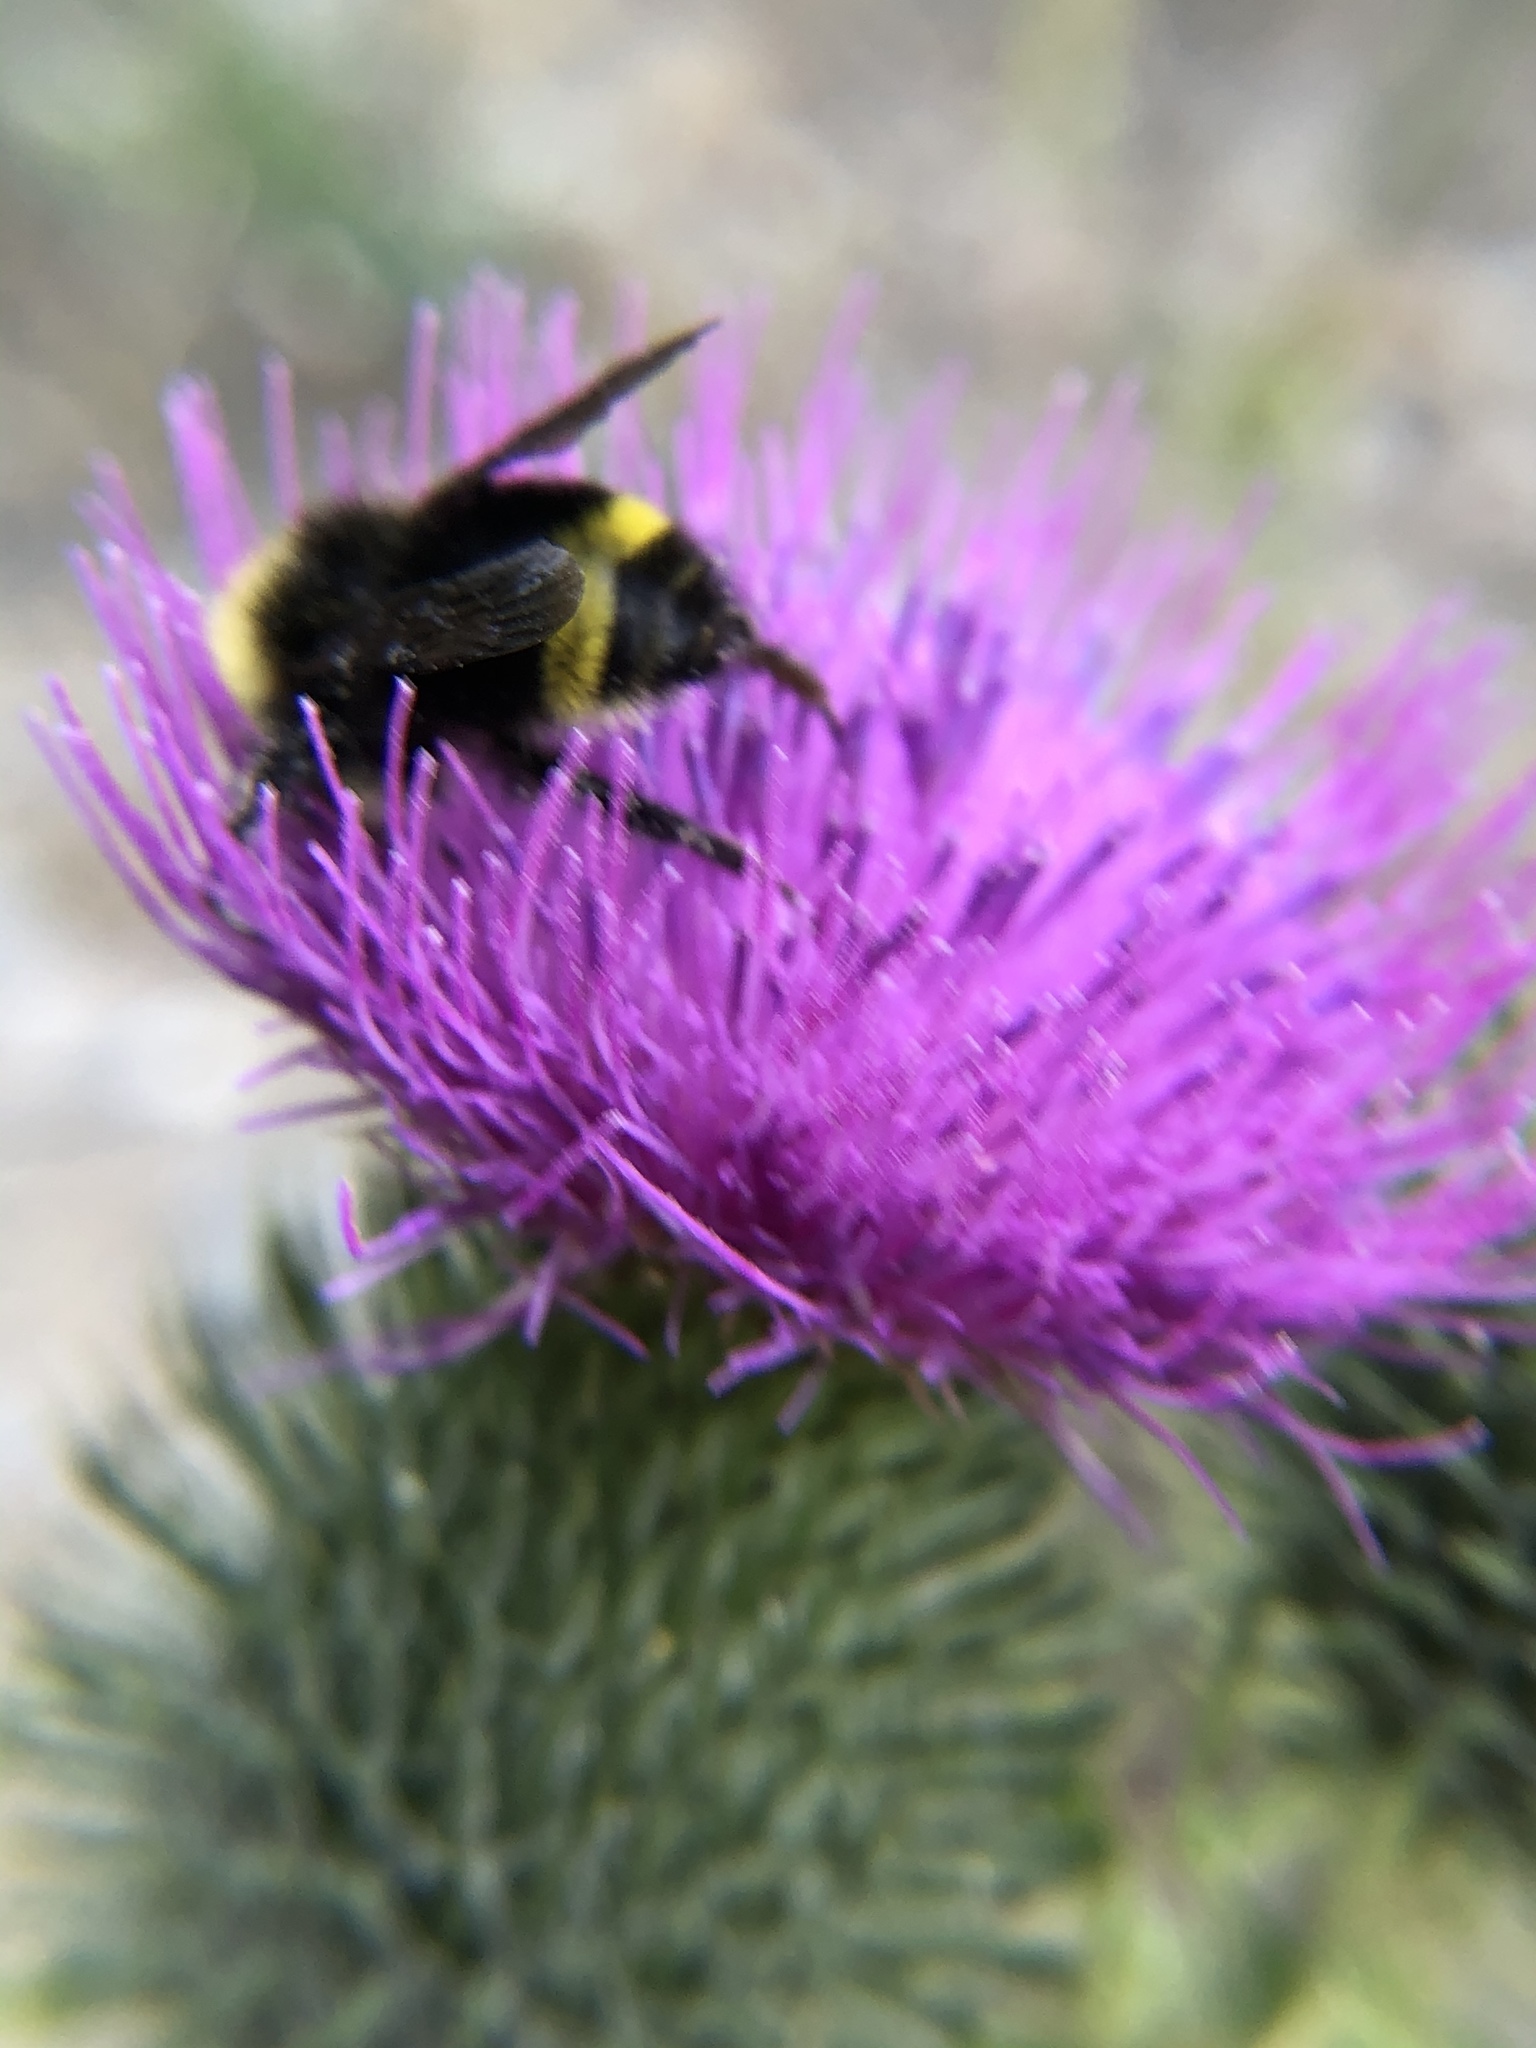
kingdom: Animalia
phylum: Arthropoda
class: Insecta
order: Hymenoptera
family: Apidae
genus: Bombus
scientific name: Bombus vandykei
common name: Van dyke bumble bee
